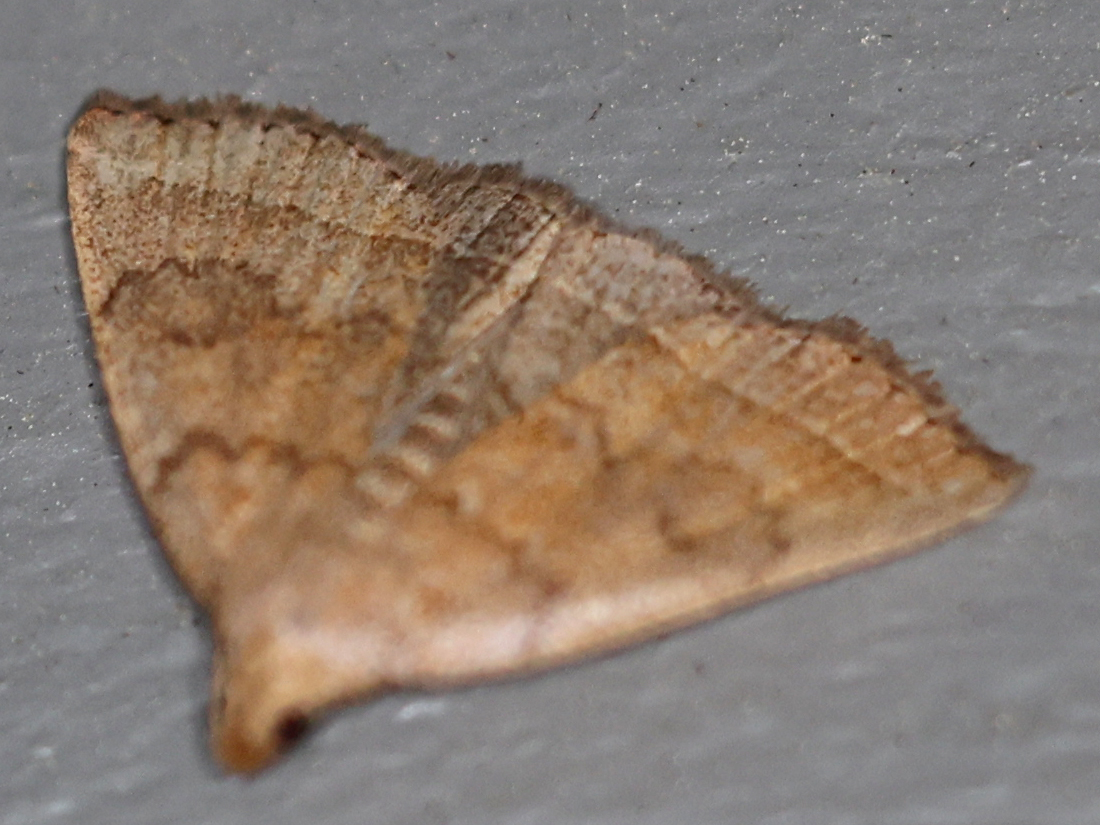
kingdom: Animalia
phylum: Arthropoda
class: Insecta
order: Lepidoptera
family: Erebidae
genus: Zanclognatha
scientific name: Zanclognatha jacchusalis
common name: Yellowish zanclognatha
